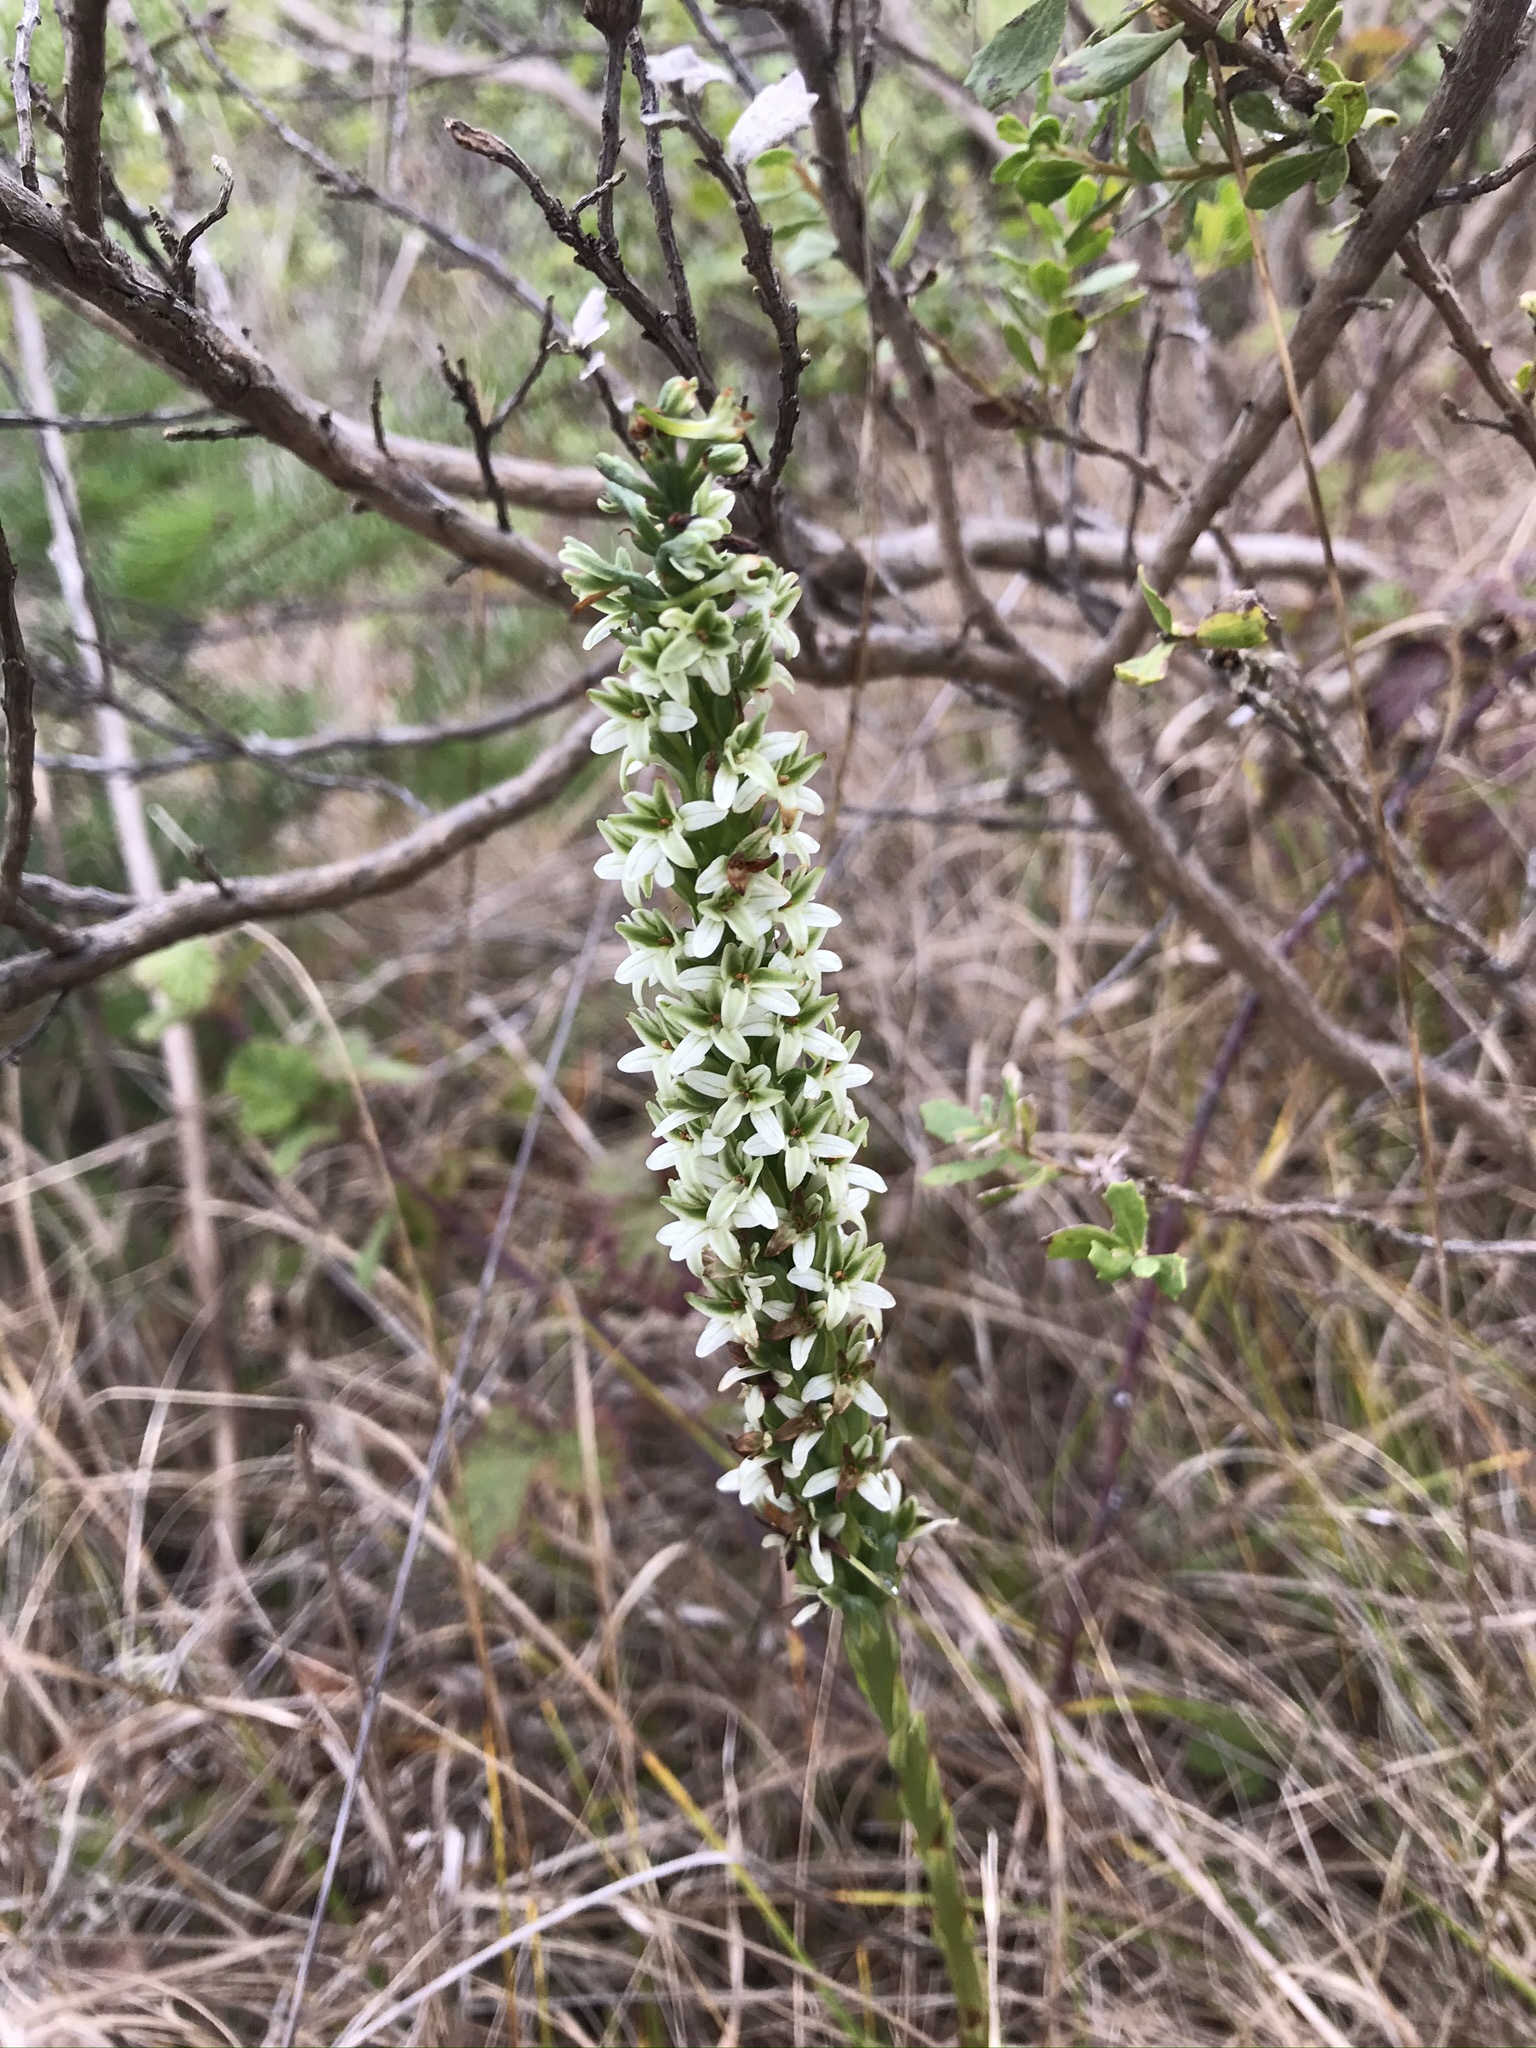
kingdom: Plantae
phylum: Tracheophyta
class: Liliopsida
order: Asparagales
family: Orchidaceae
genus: Platanthera
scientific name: Platanthera elegans
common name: Coast piperia
